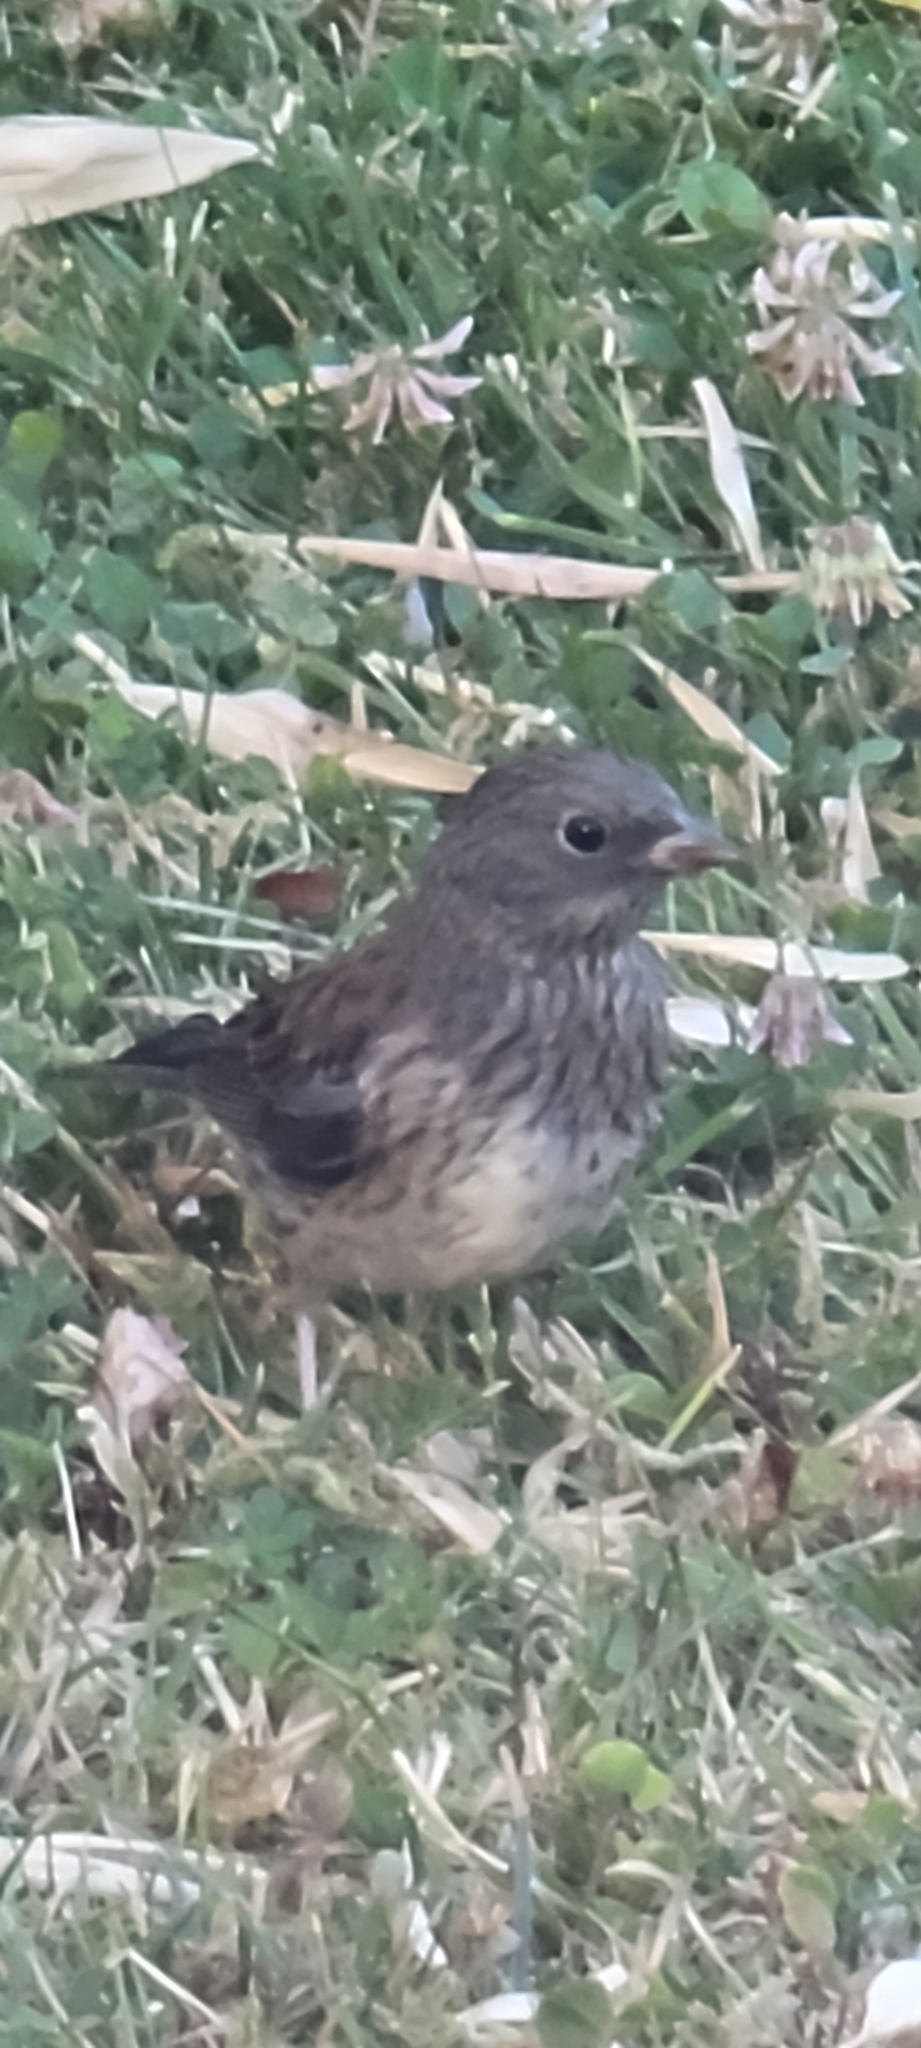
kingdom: Animalia
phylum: Chordata
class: Aves
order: Passeriformes
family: Passerellidae
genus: Junco
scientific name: Junco hyemalis
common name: Dark-eyed junco
